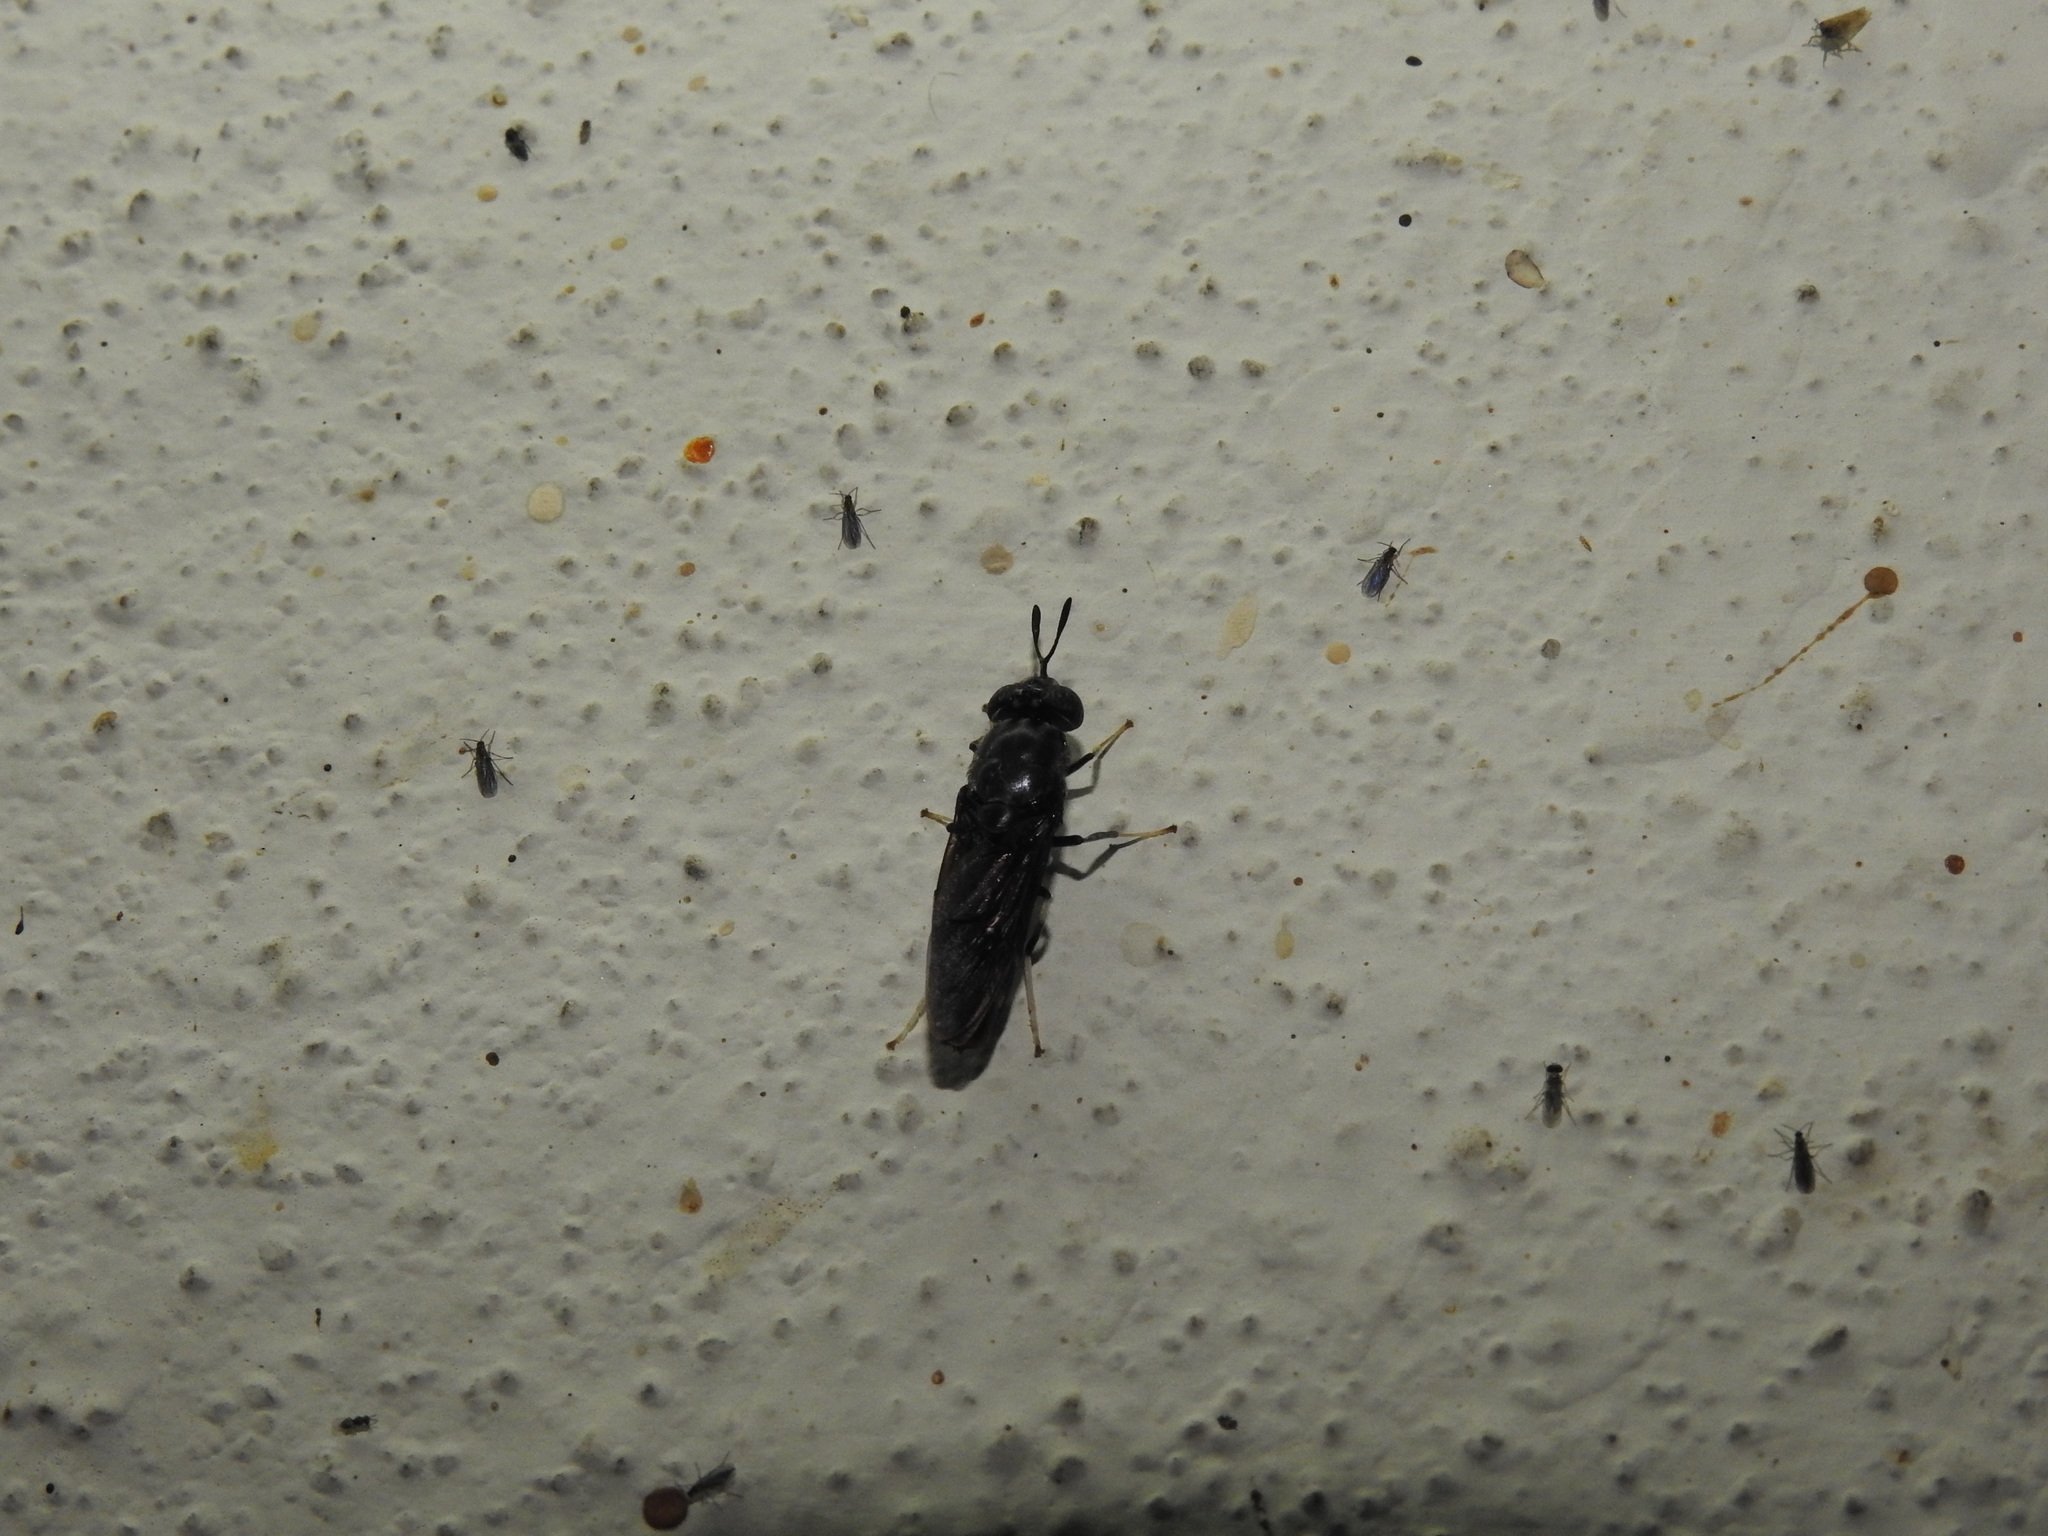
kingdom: Animalia
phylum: Arthropoda
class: Insecta
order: Diptera
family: Stratiomyidae
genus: Hermetia
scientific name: Hermetia illucens
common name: Black soldier fly
